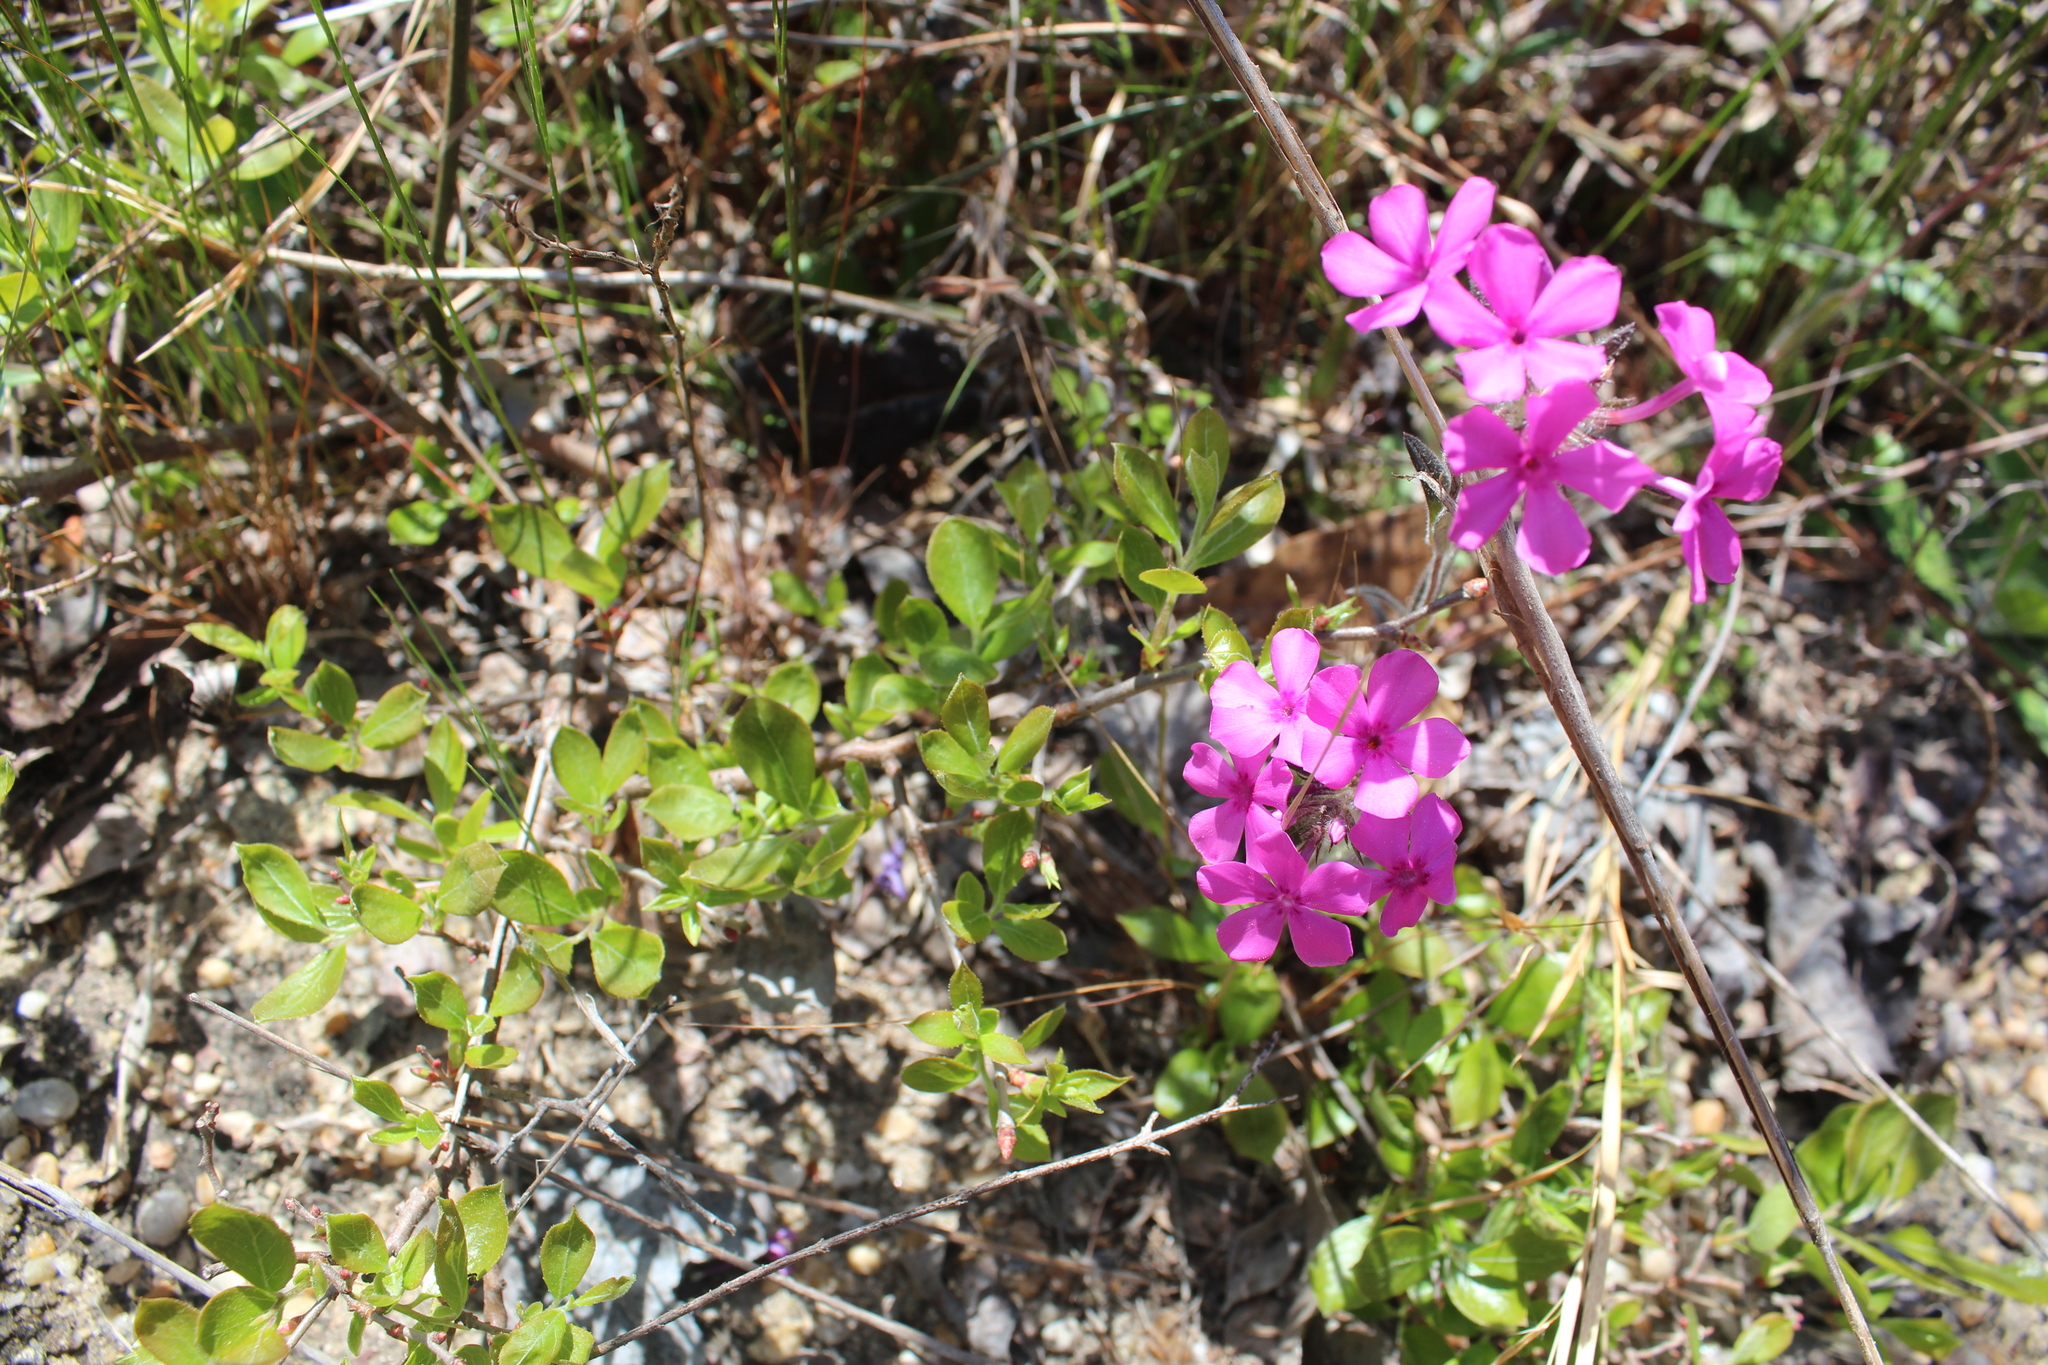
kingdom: Plantae
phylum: Tracheophyta
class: Magnoliopsida
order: Ericales
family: Polemoniaceae
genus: Phlox
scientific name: Phlox amoena
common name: Hairy phlox
